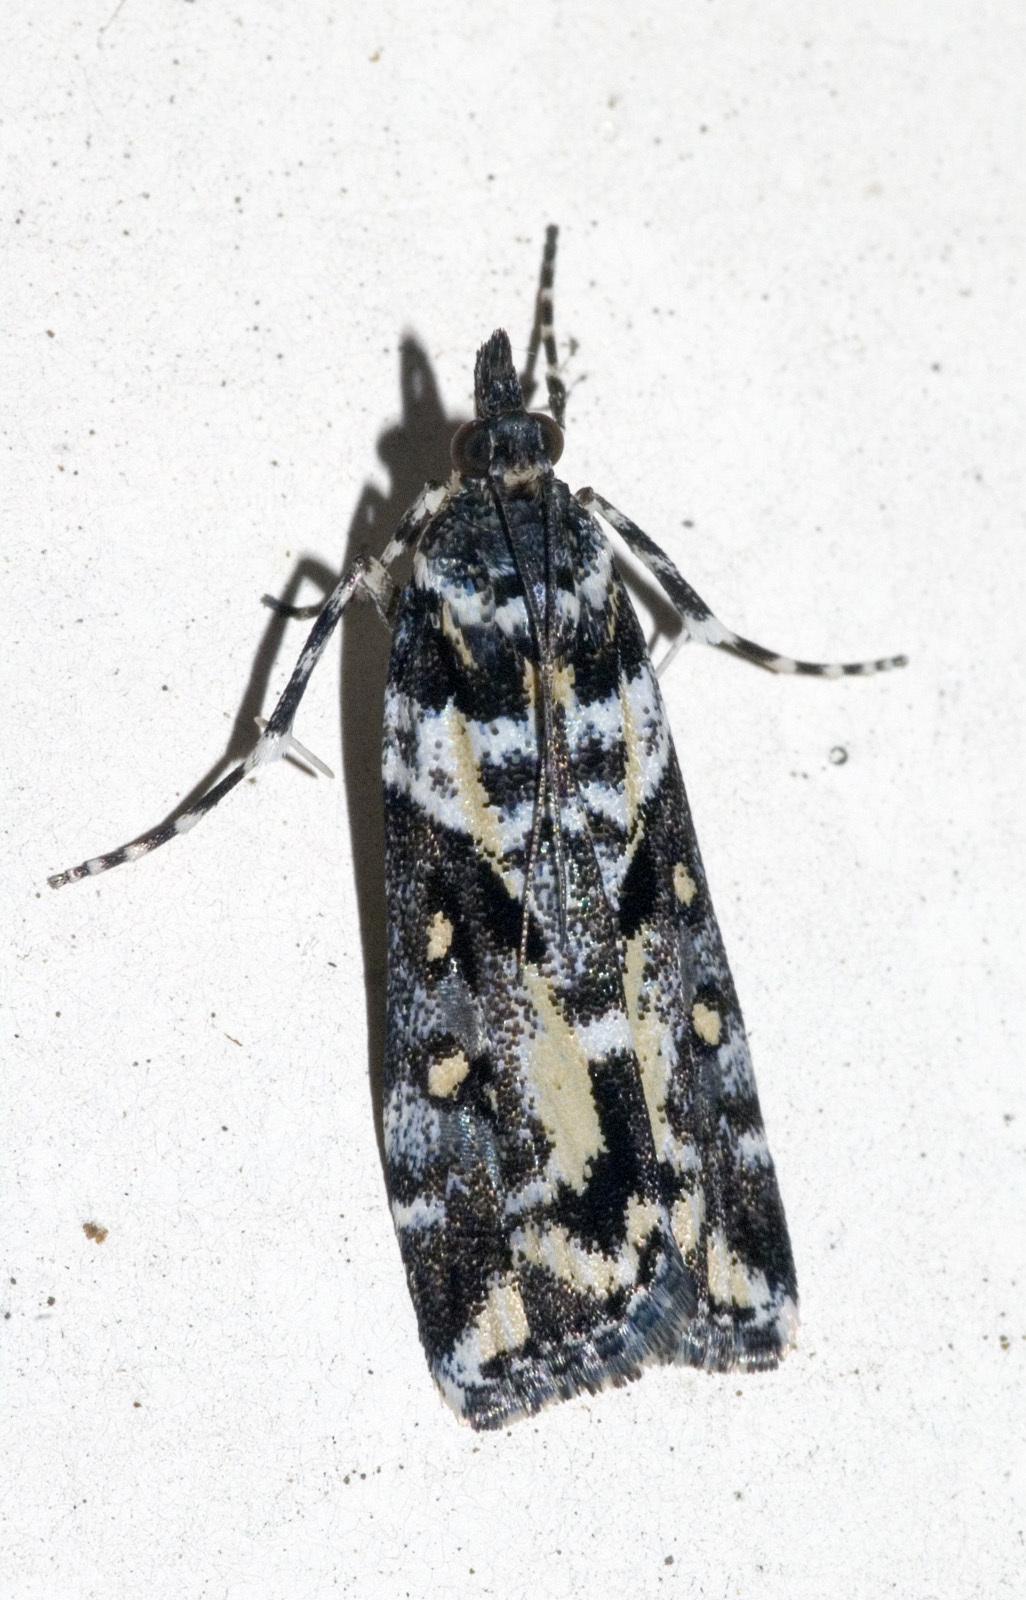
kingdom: Animalia
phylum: Arthropoda
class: Insecta
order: Lepidoptera
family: Crambidae
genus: Eudonia
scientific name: Eudonia diphtheralis
